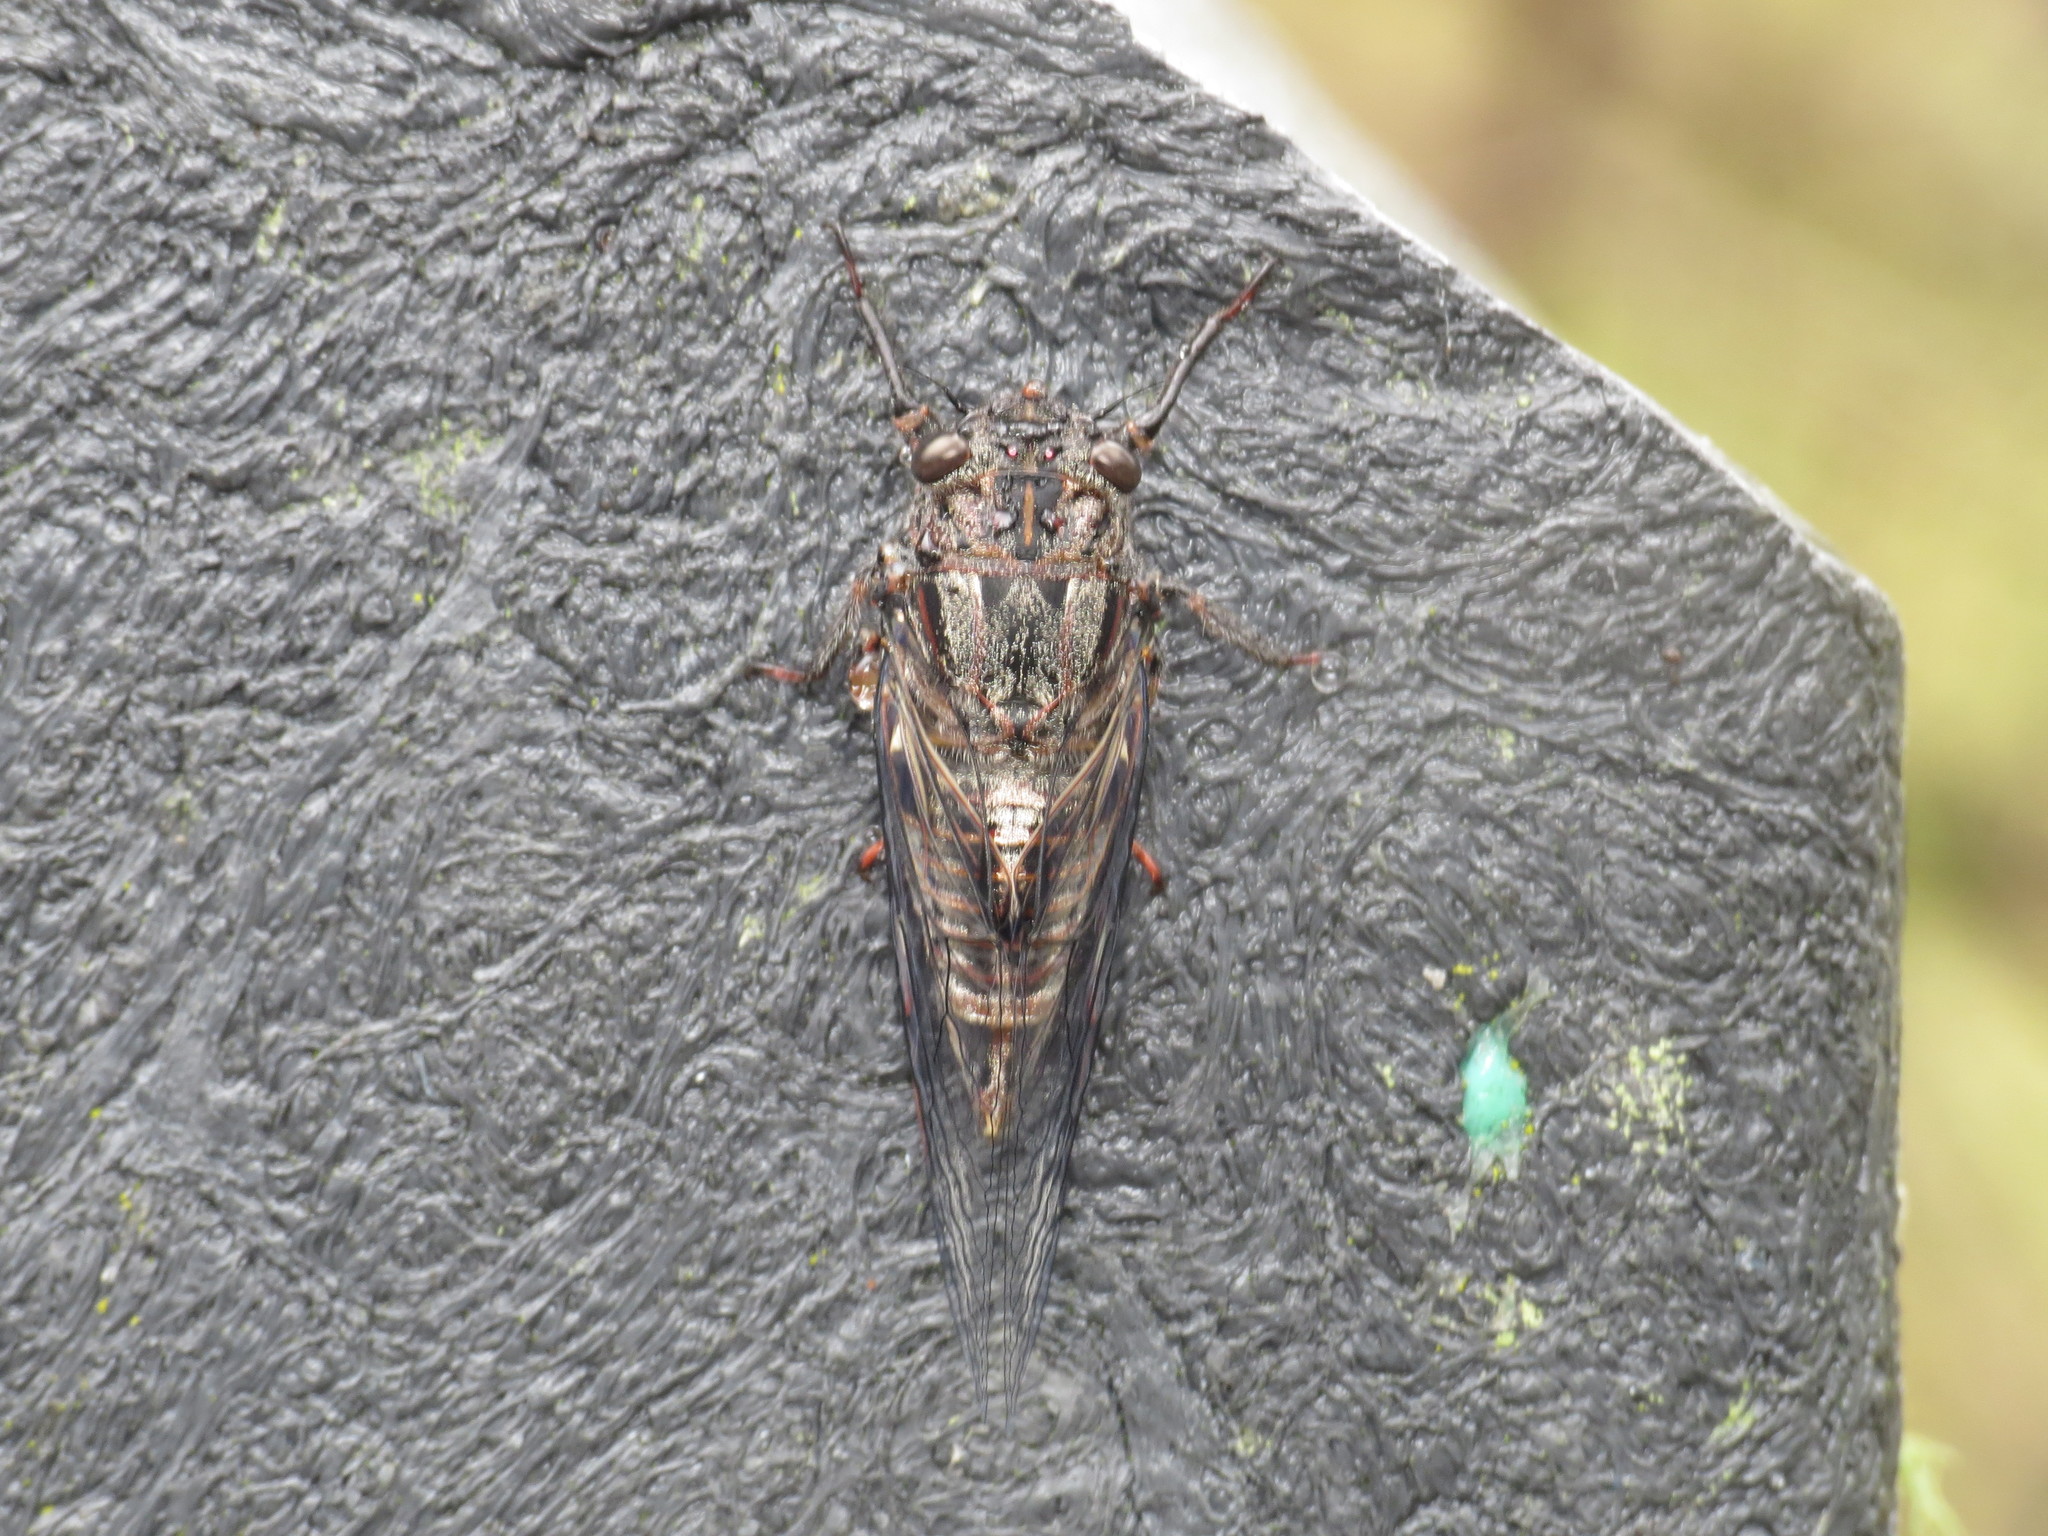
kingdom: Animalia
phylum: Arthropoda
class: Insecta
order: Hemiptera
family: Cicadidae
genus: Pauropsalta
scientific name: Pauropsalta mneme
